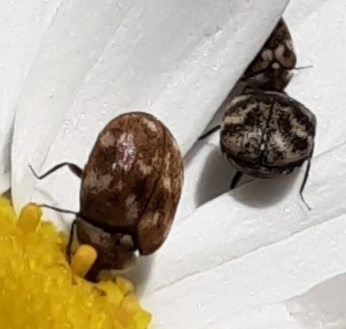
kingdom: Animalia
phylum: Arthropoda
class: Insecta
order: Coleoptera
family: Dermestidae
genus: Anthrenus
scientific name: Anthrenus verbasci
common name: Varied carpet beetle
